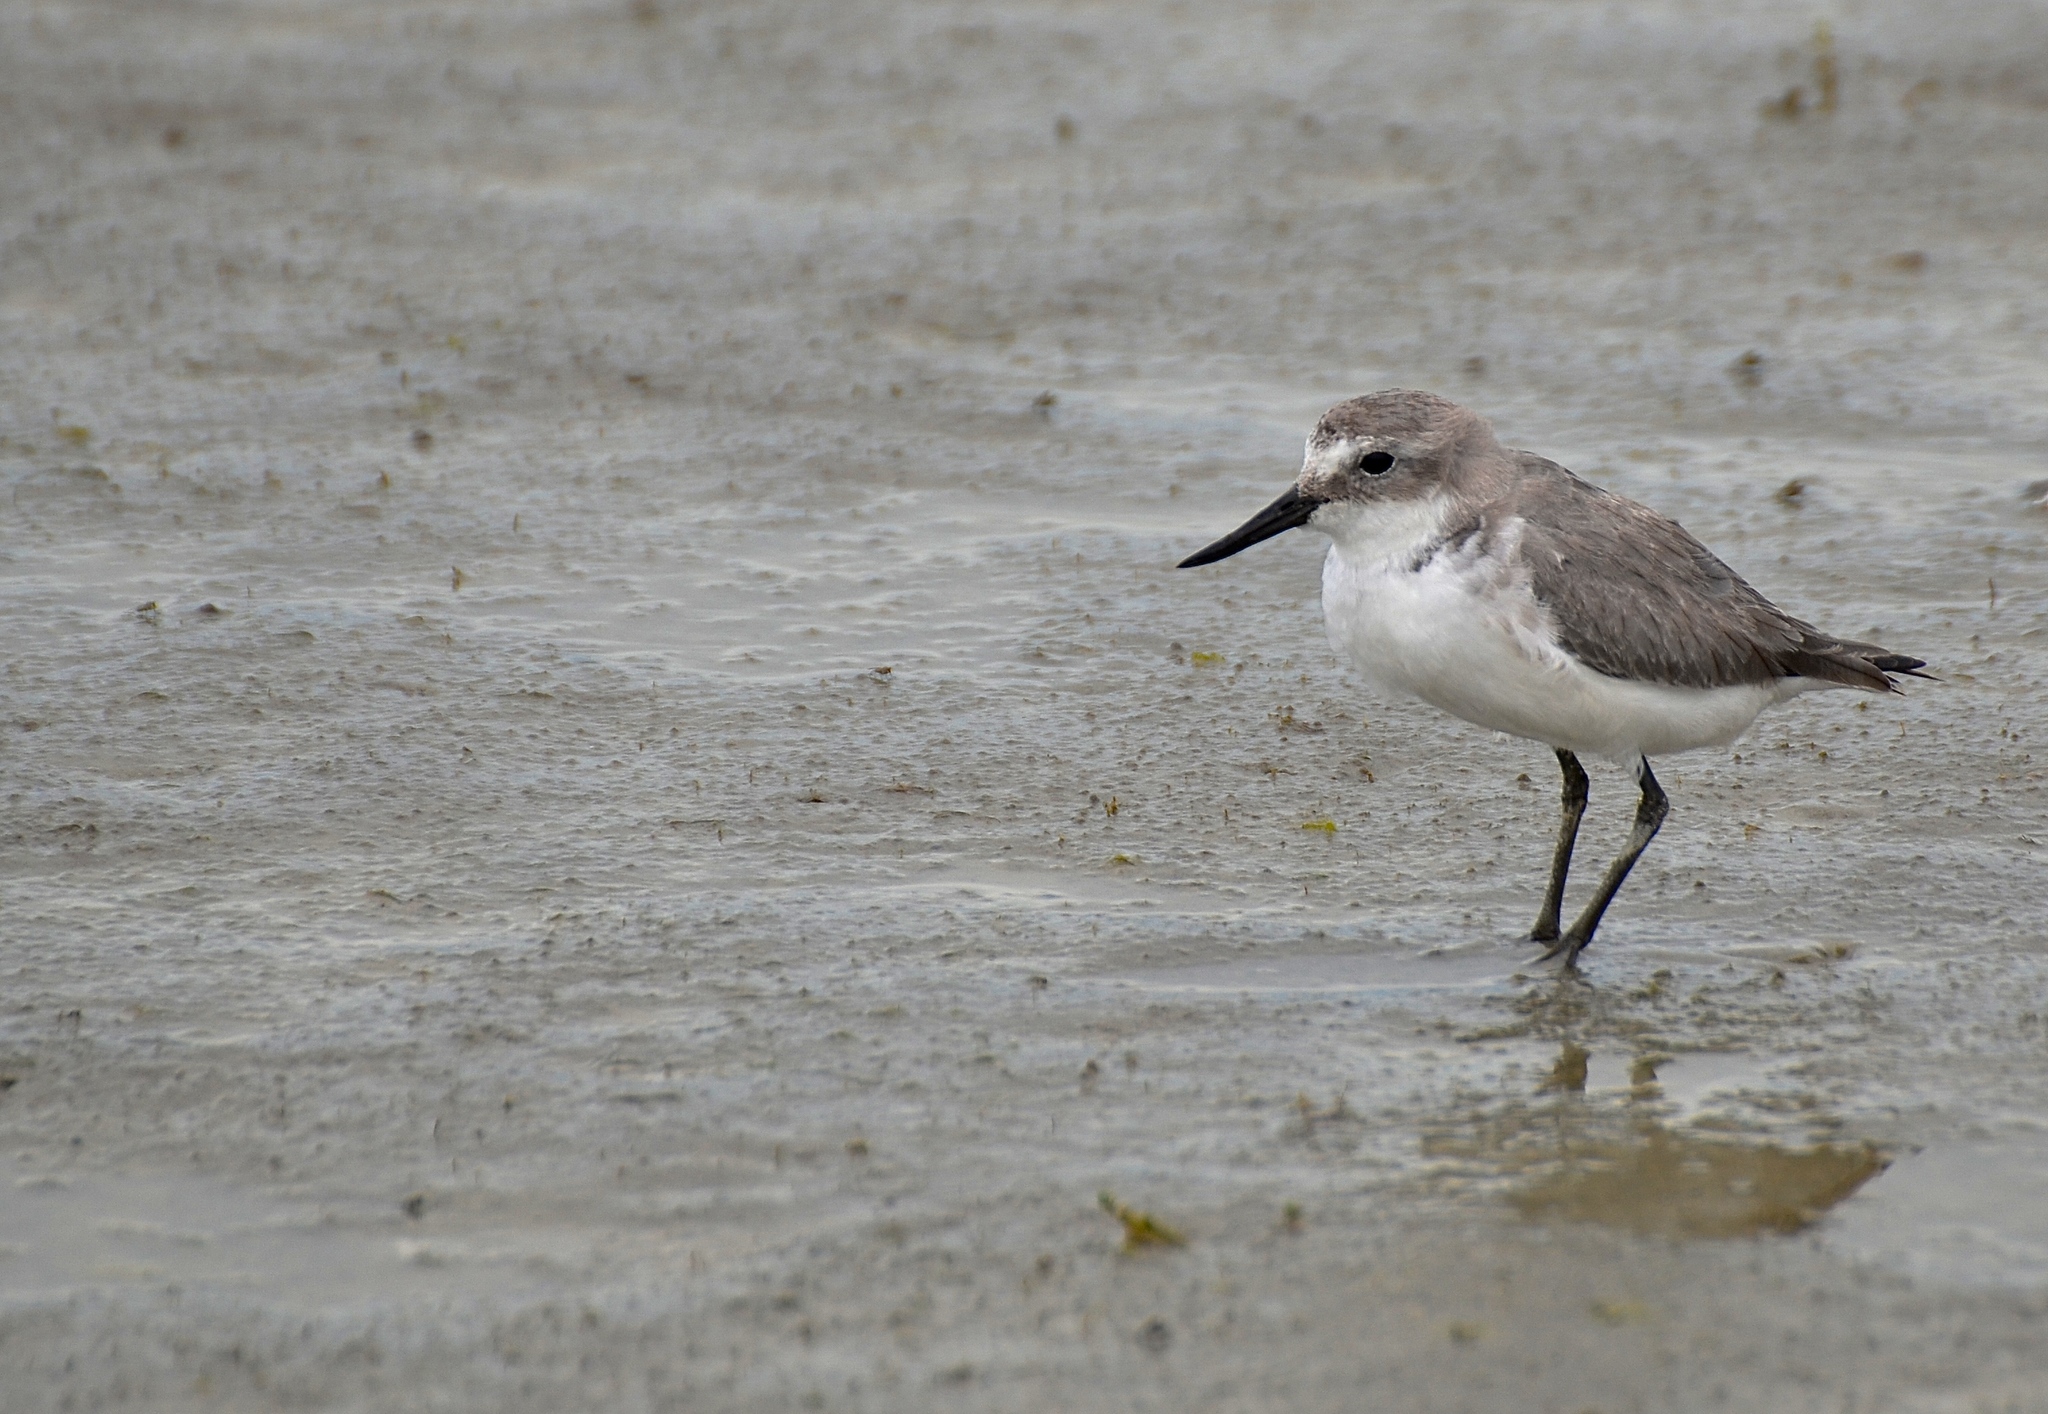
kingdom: Animalia
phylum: Chordata
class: Aves
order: Charadriiformes
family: Charadriidae
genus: Anarhynchus
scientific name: Anarhynchus frontalis
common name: Wrybill
